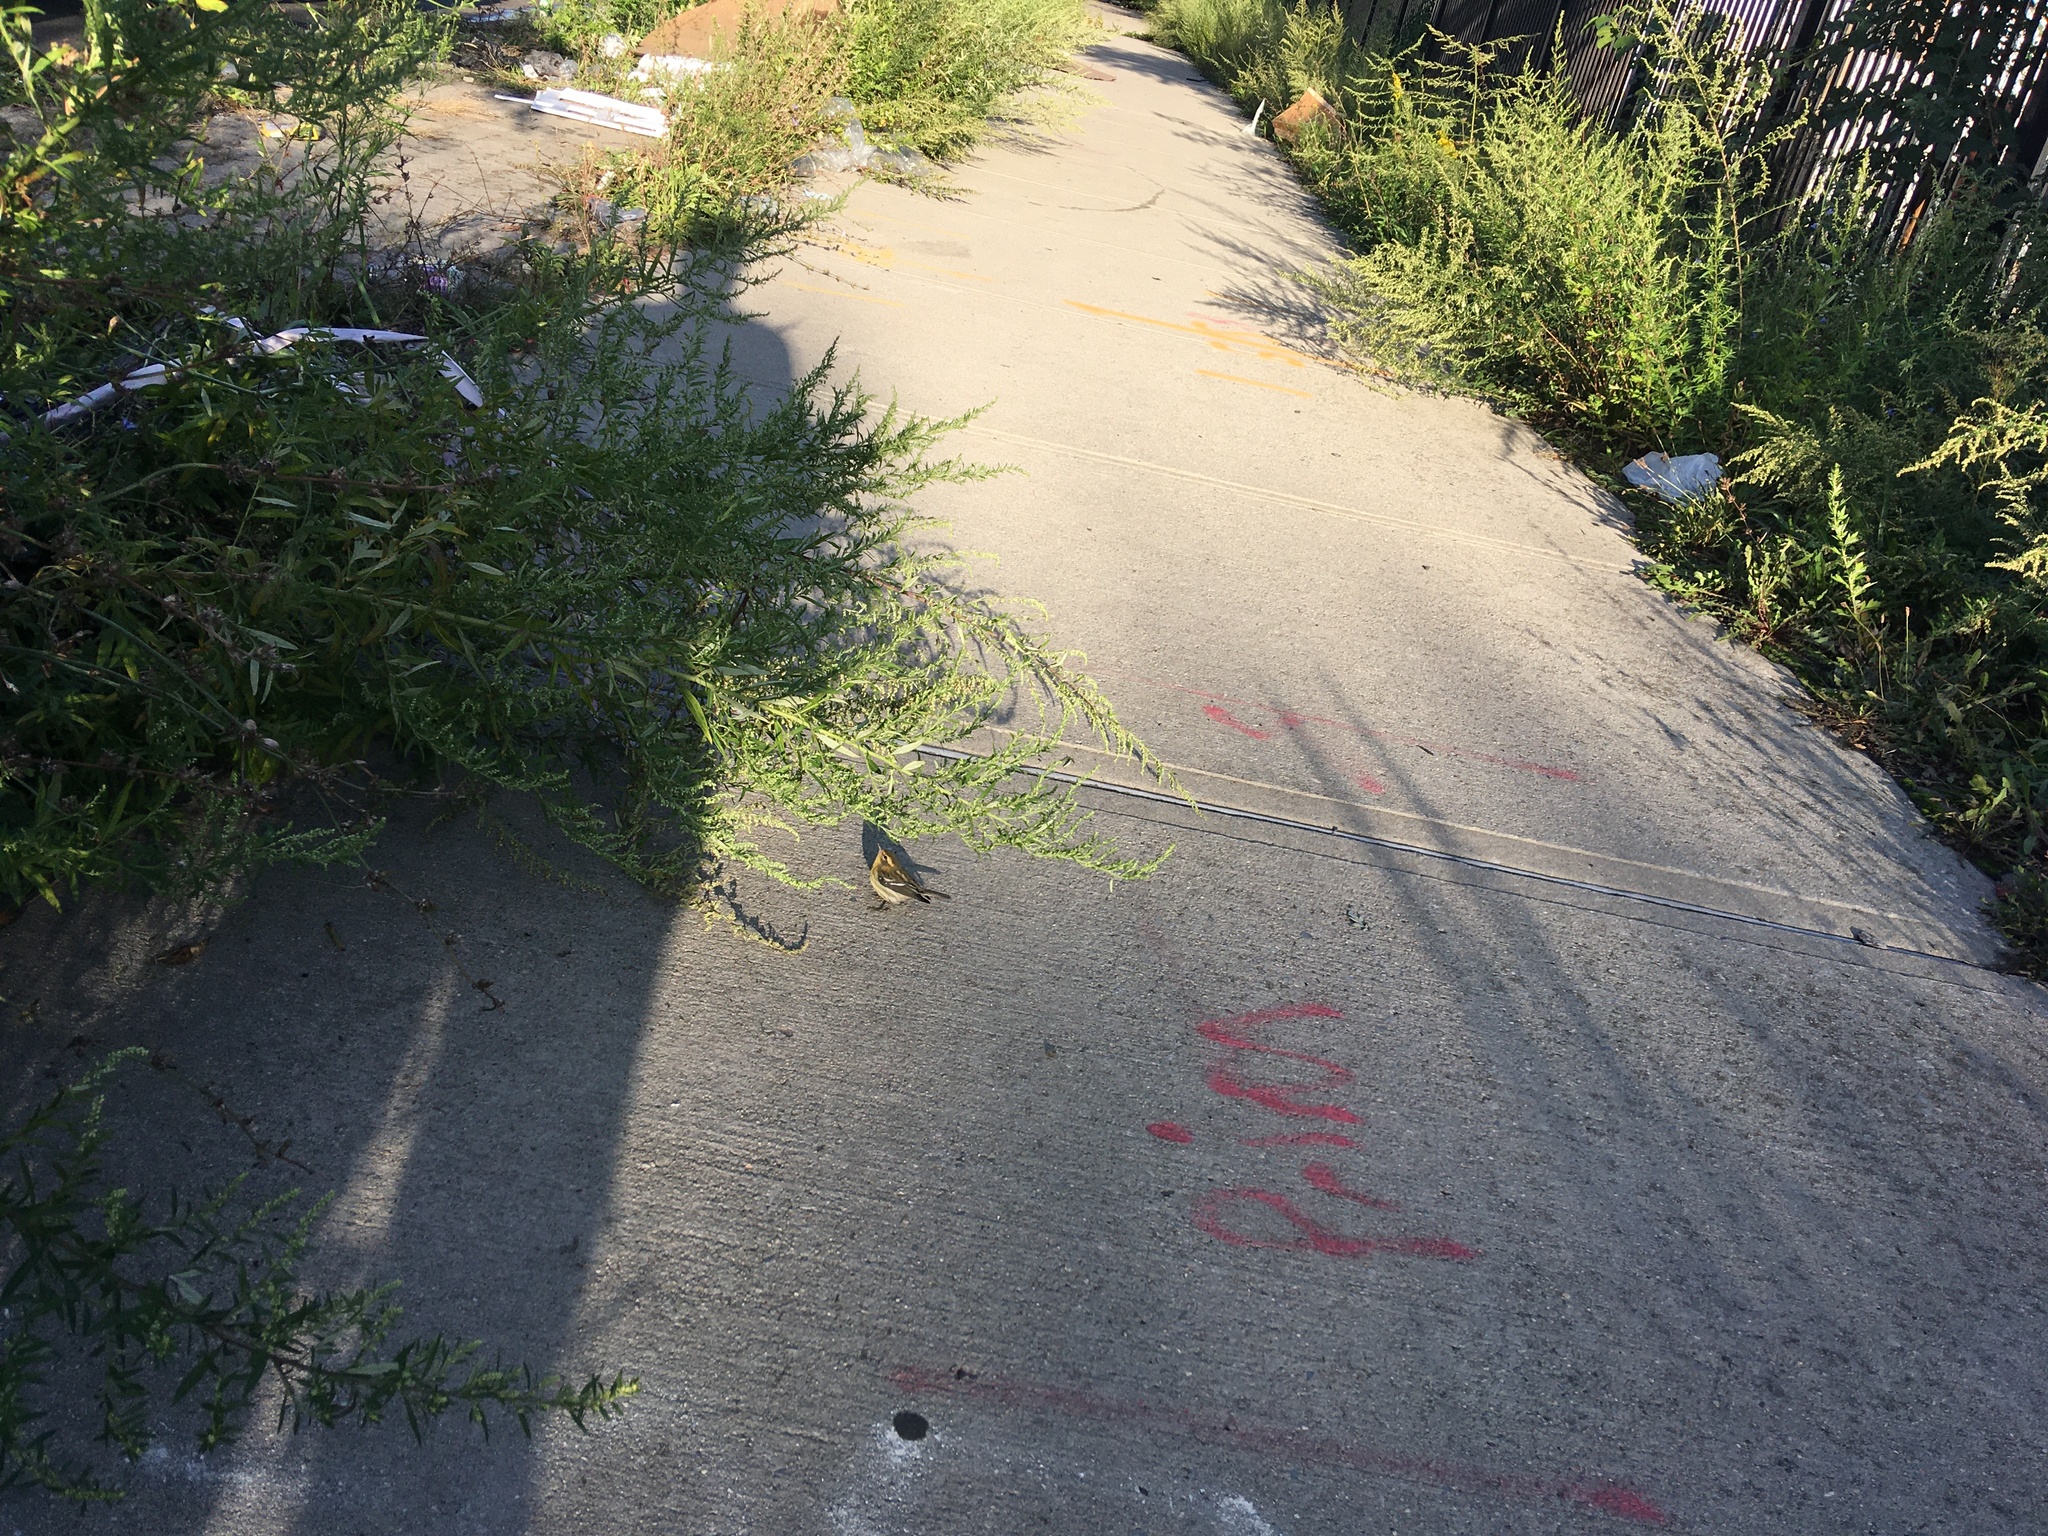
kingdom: Plantae
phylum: Tracheophyta
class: Magnoliopsida
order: Asterales
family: Asteraceae
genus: Artemisia
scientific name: Artemisia vulgaris
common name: Mugwort
